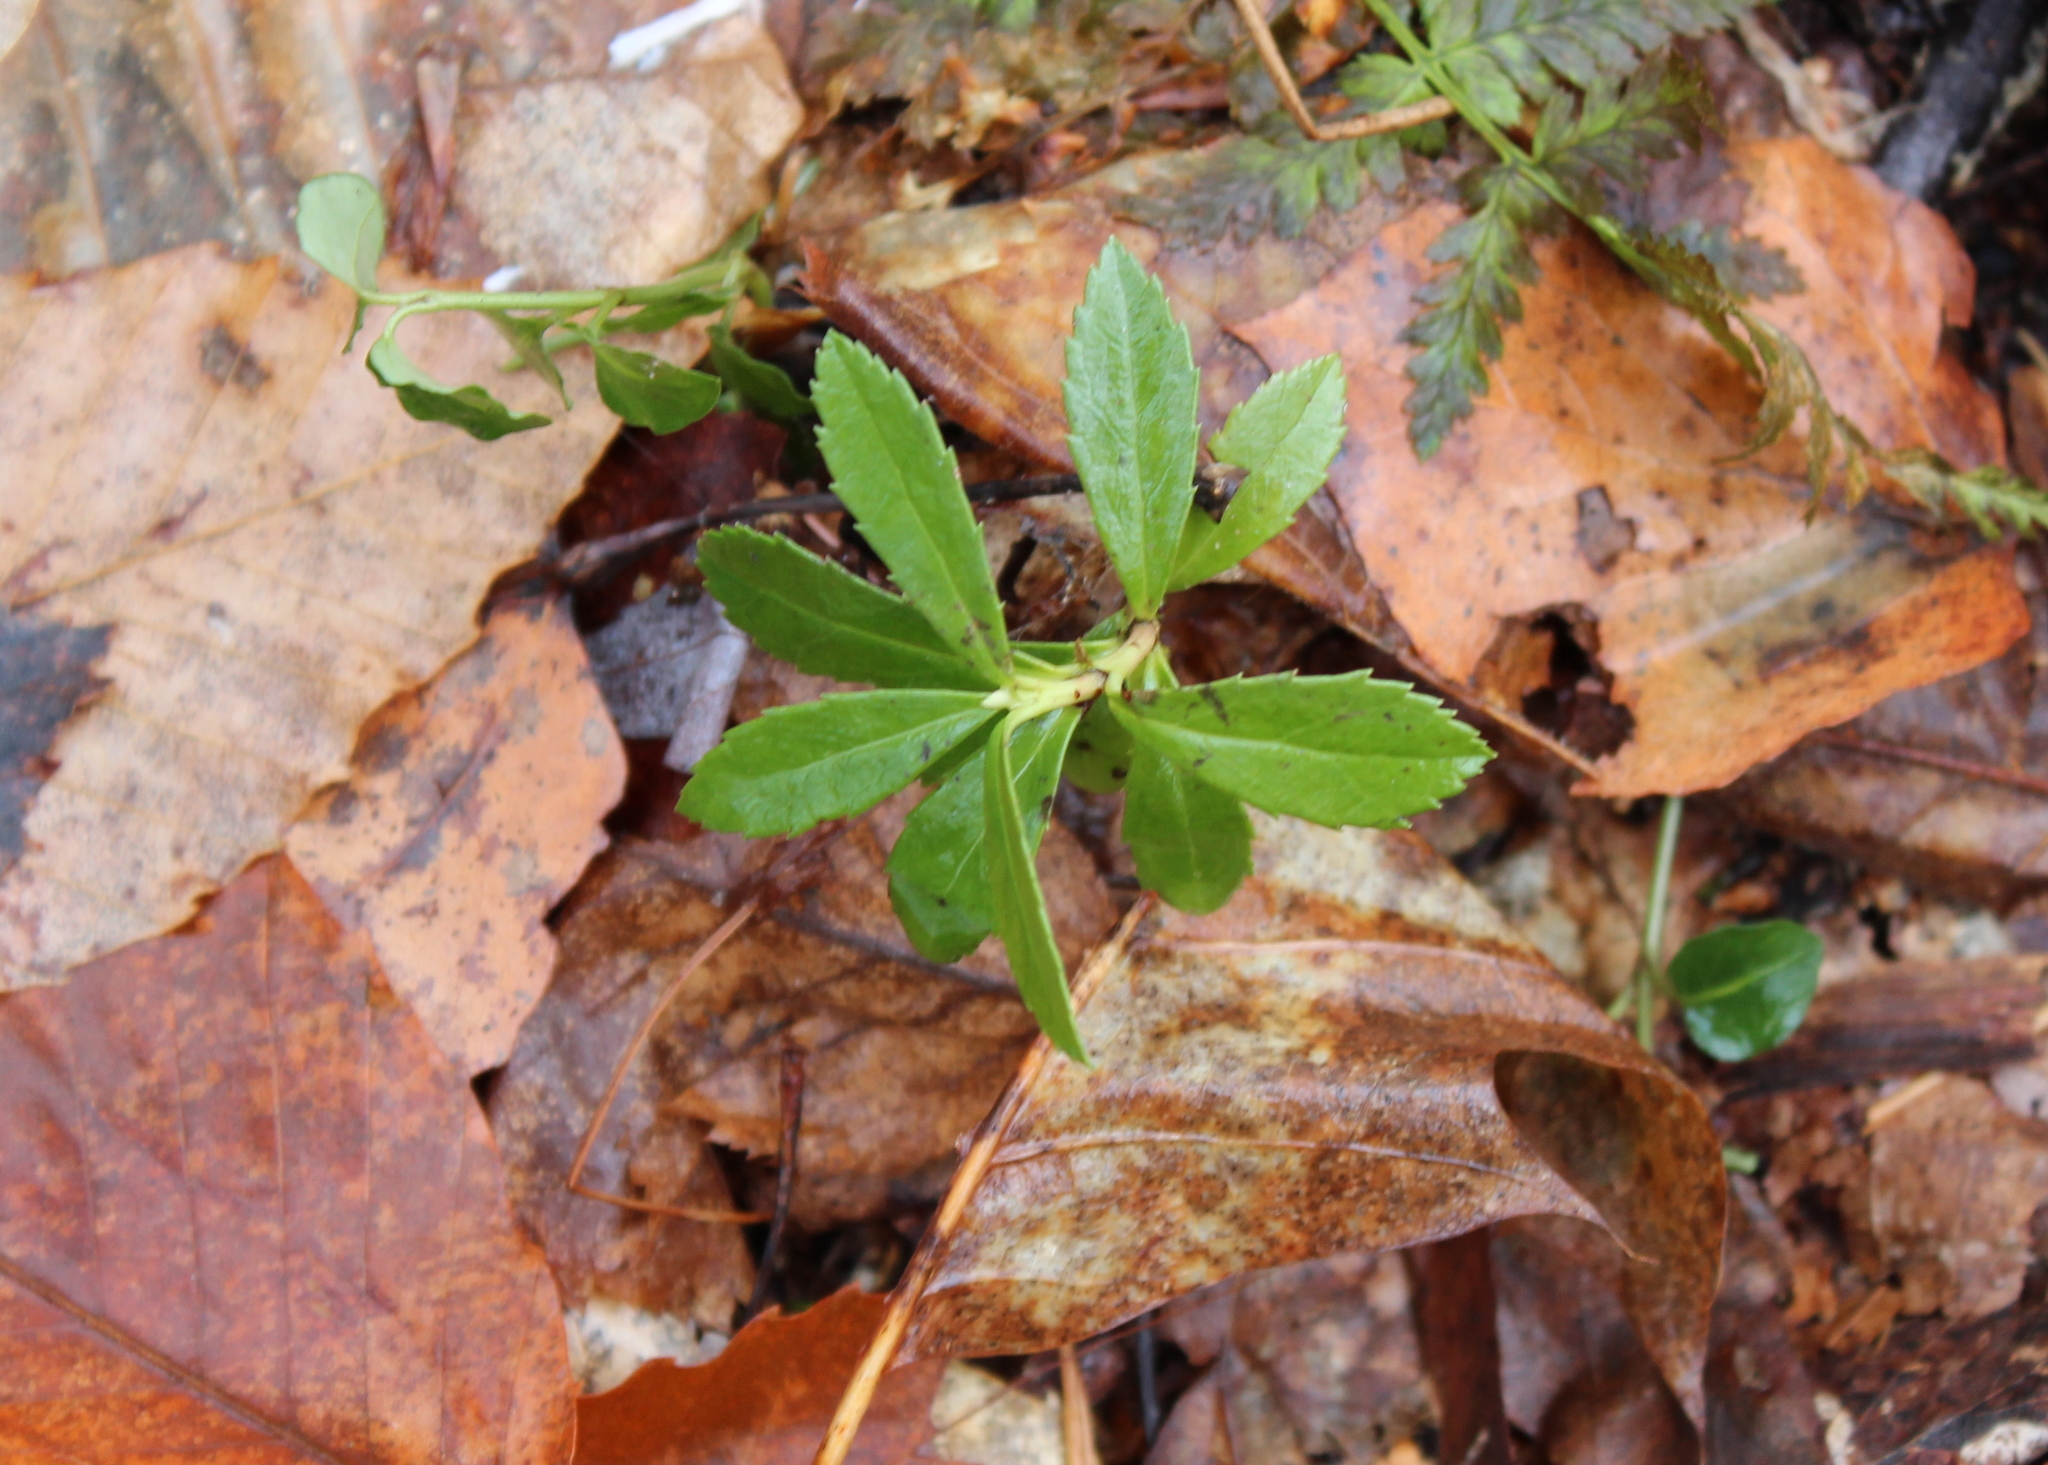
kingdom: Plantae
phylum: Tracheophyta
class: Magnoliopsida
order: Ericales
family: Ericaceae
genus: Chimaphila
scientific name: Chimaphila umbellata
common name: Pipsissewa
